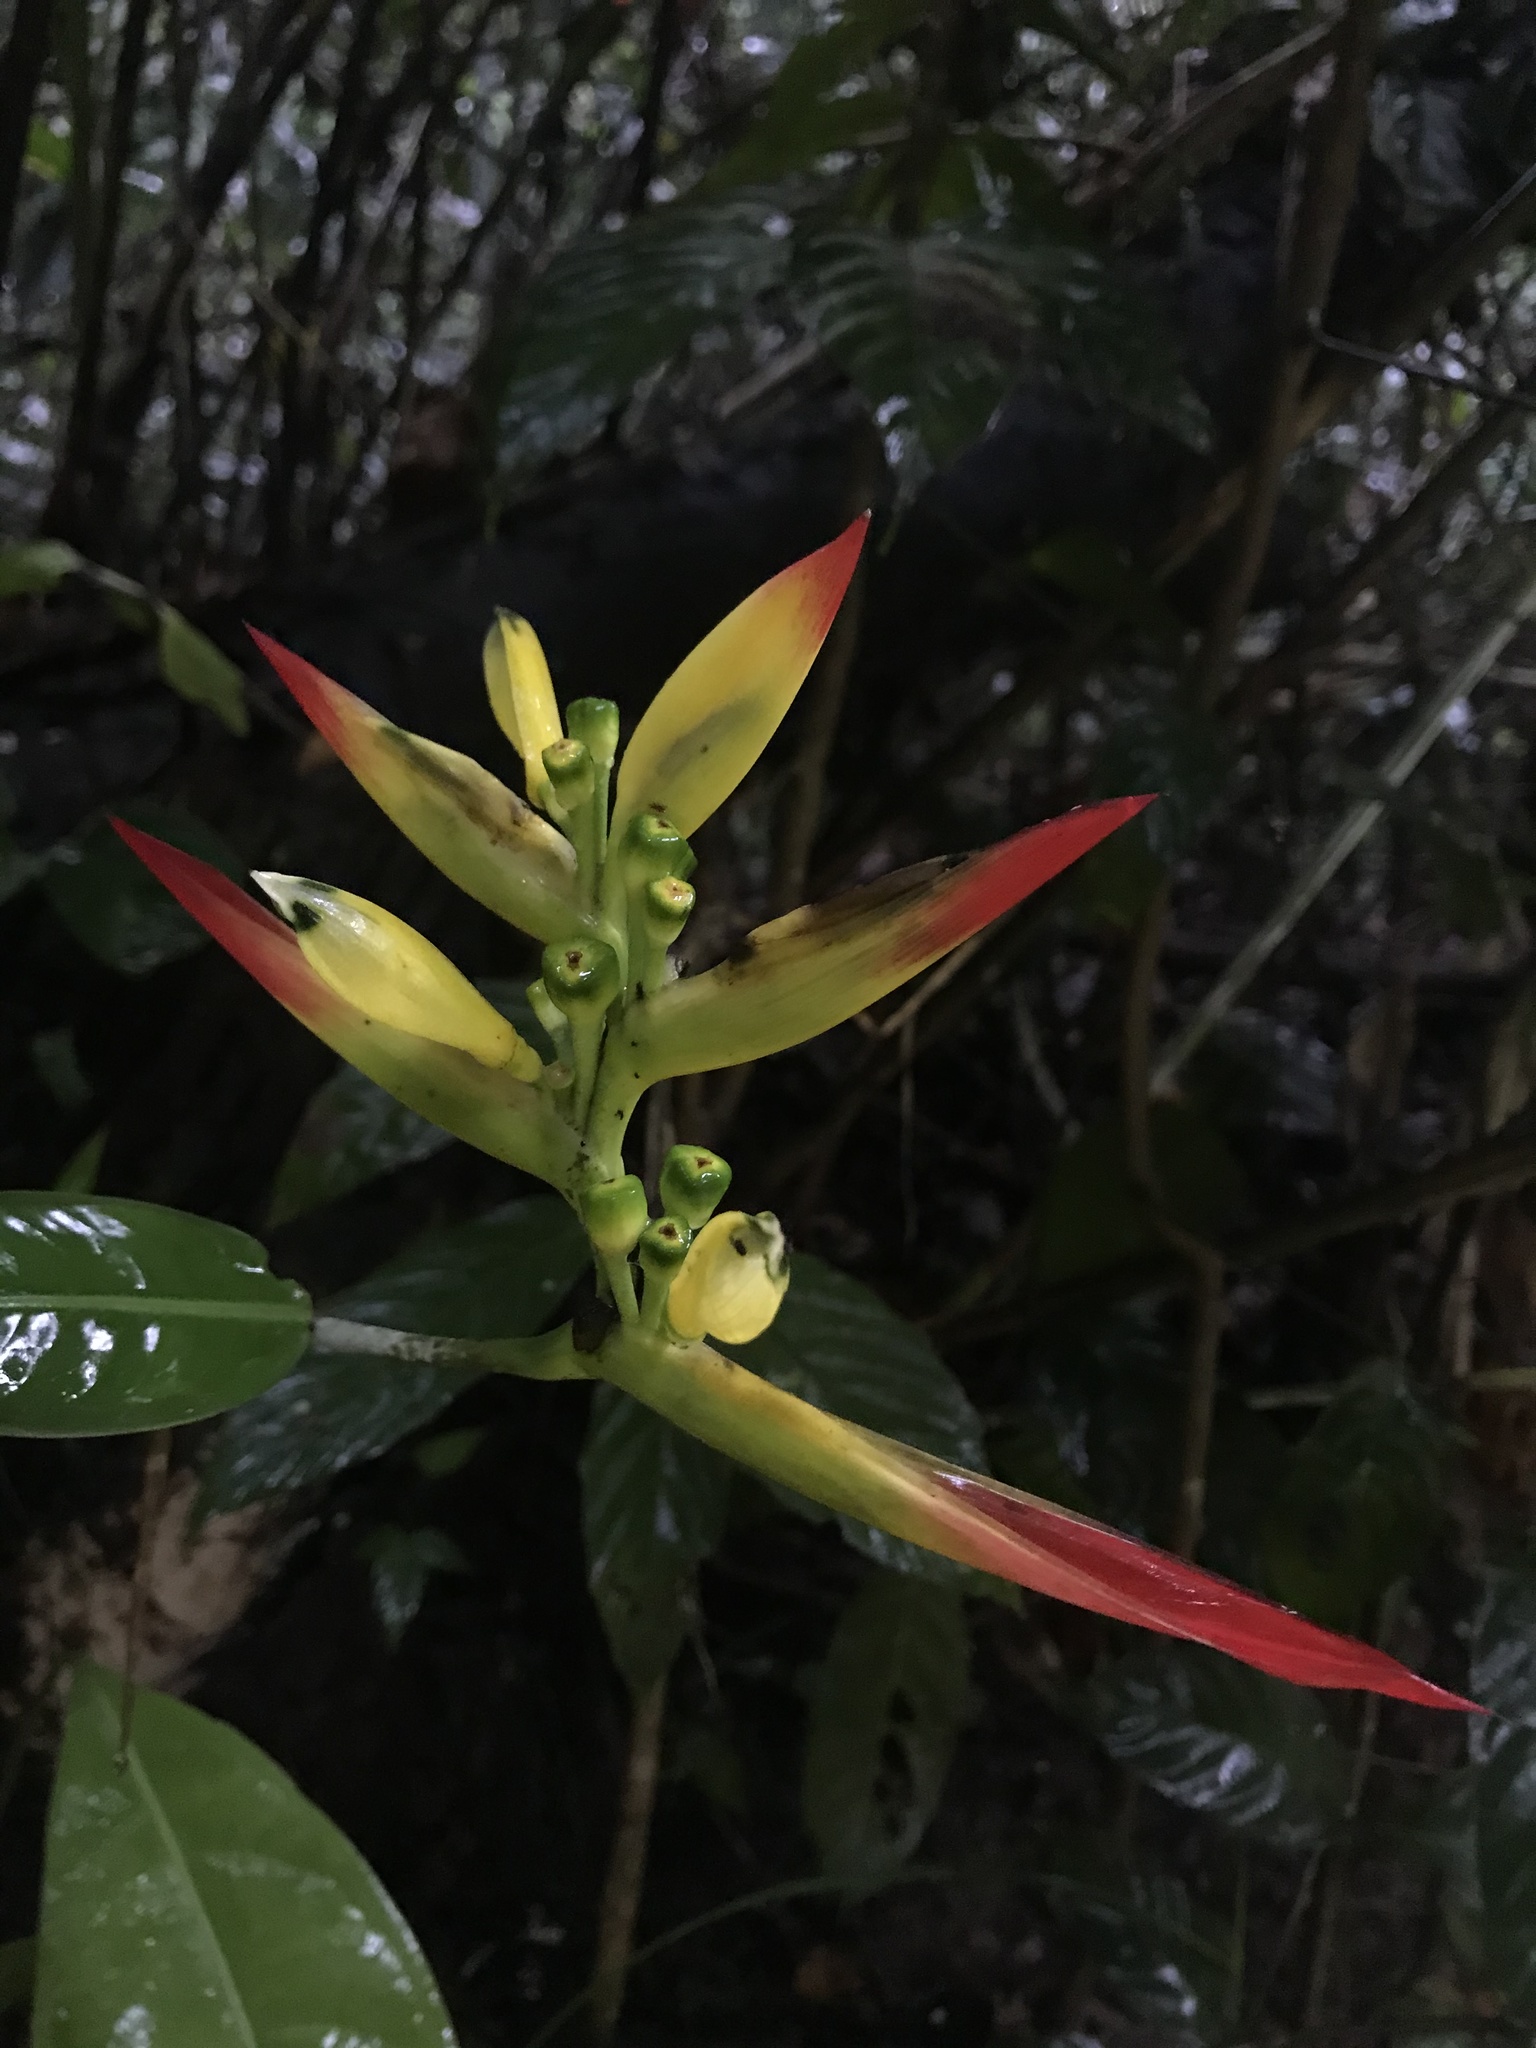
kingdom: Plantae
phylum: Tracheophyta
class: Liliopsida
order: Zingiberales
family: Heliconiaceae
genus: Heliconia
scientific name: Heliconia hirsuta
